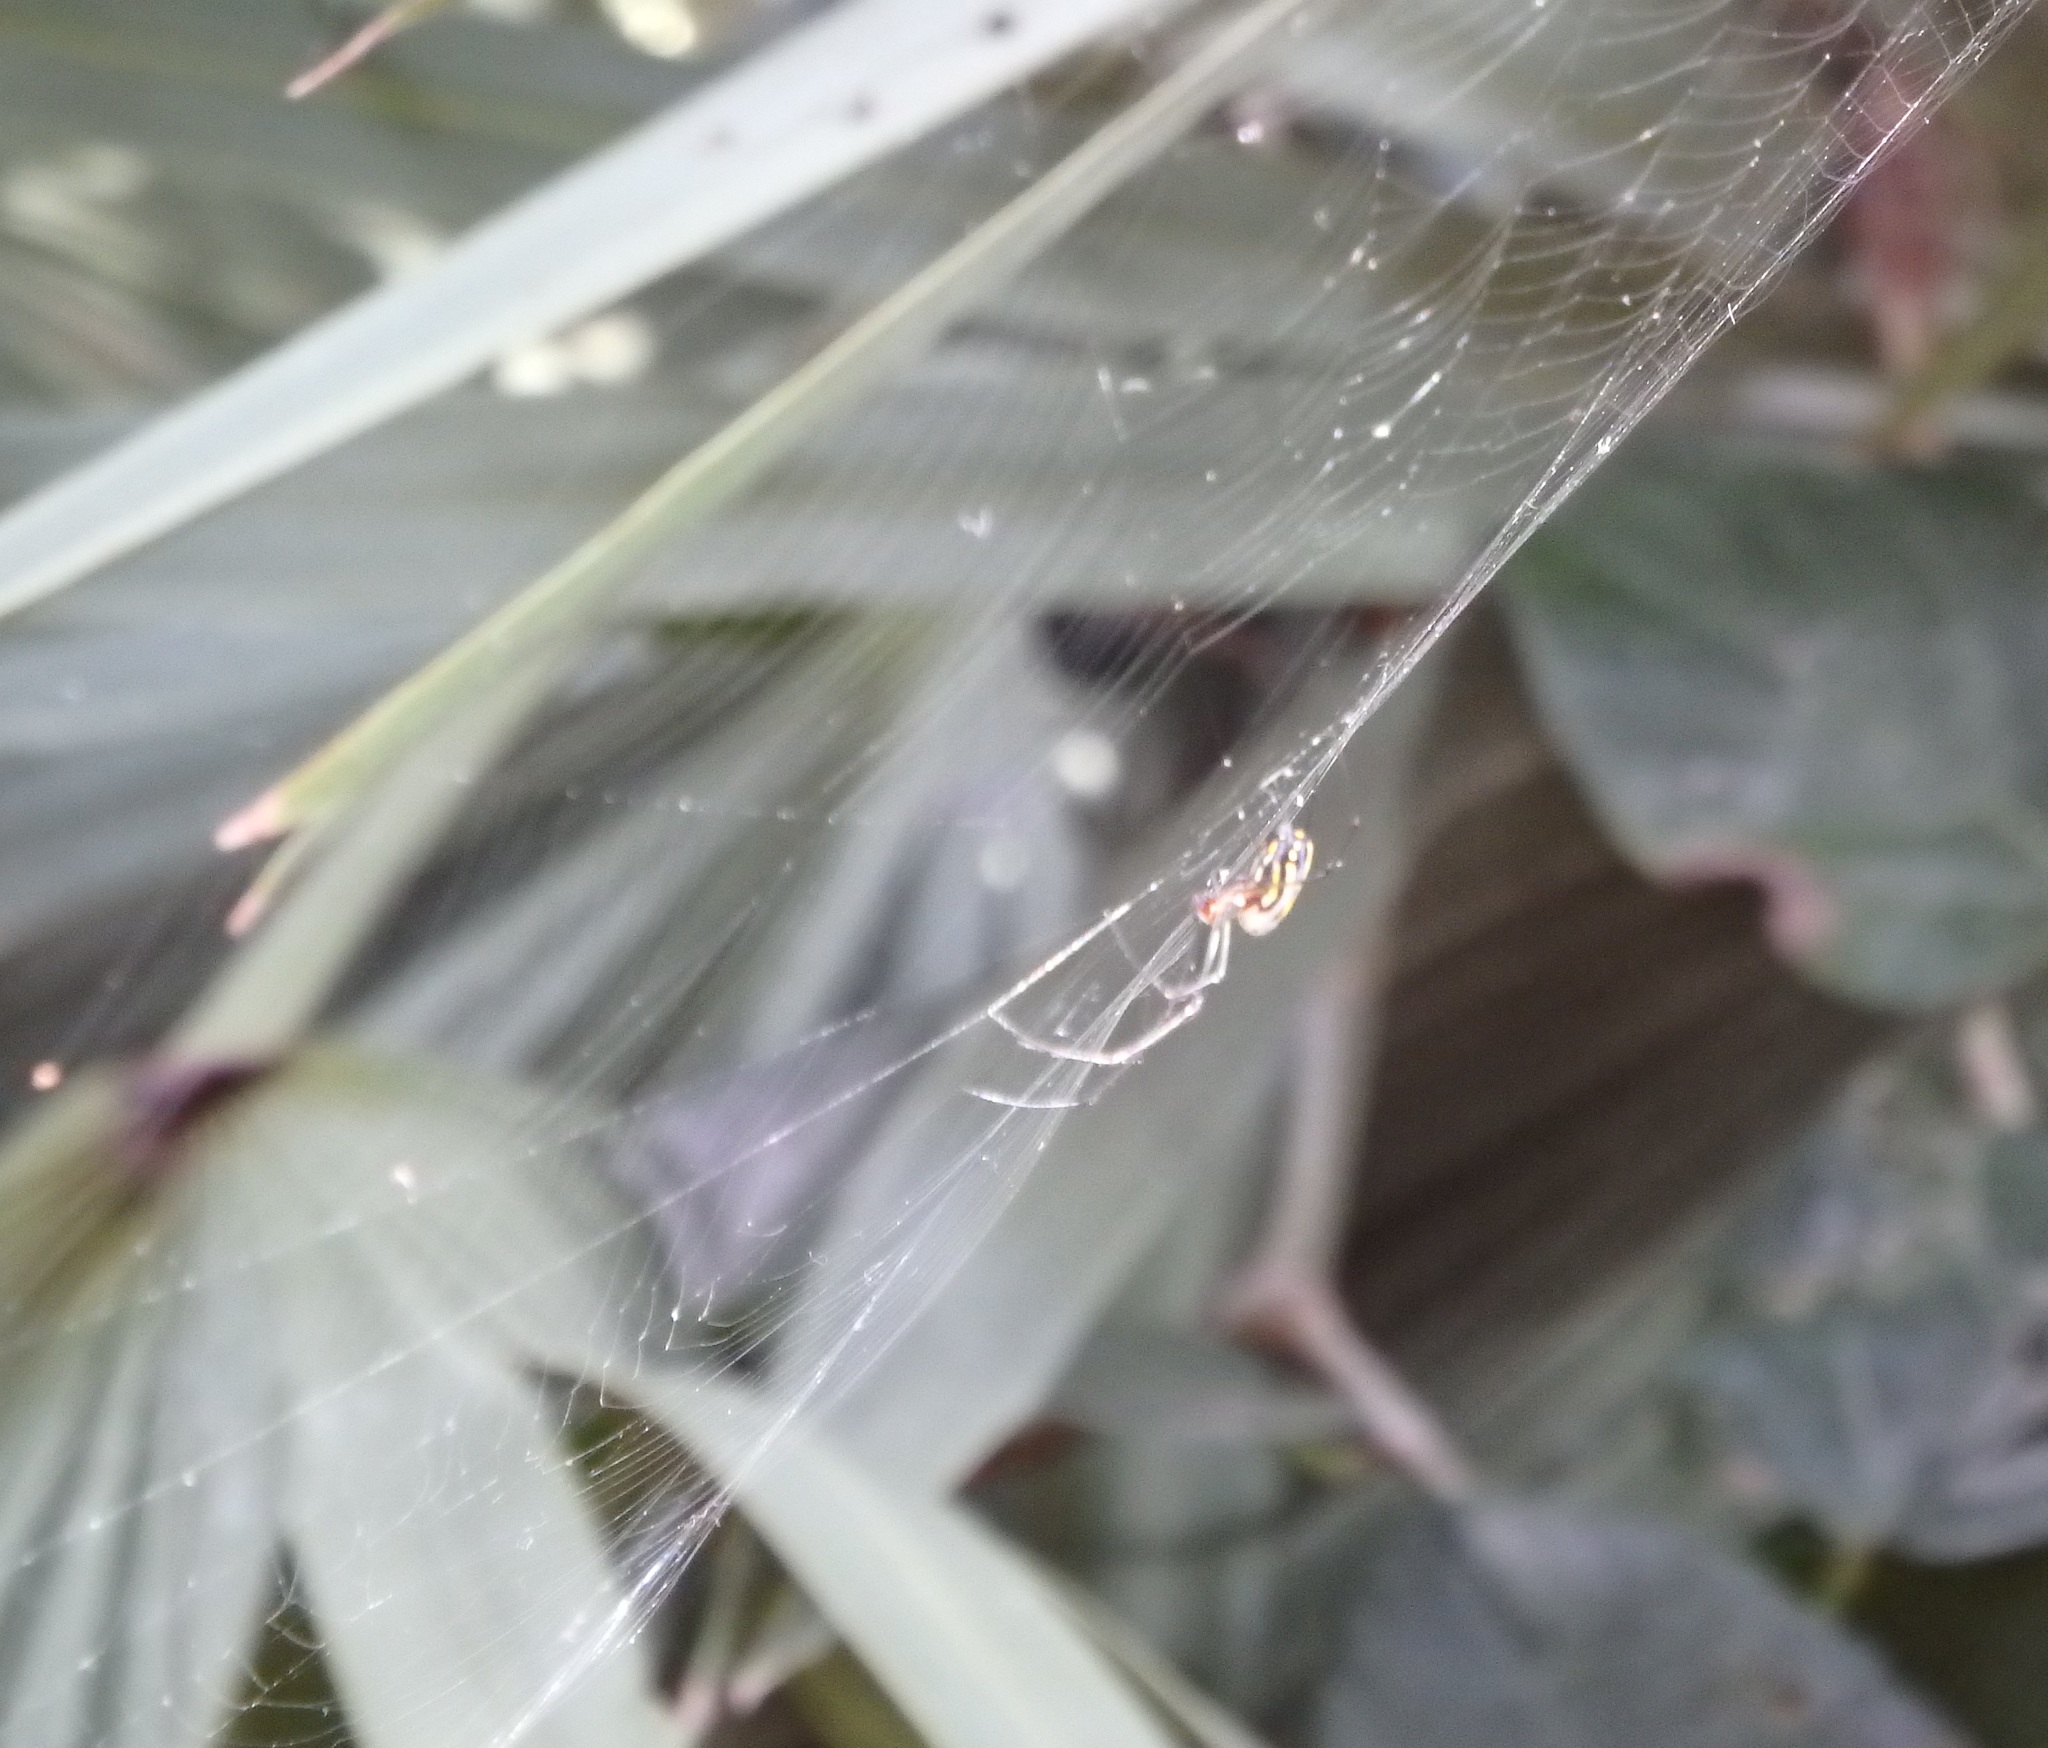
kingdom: Animalia
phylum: Arthropoda
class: Arachnida
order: Araneae
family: Tetragnathidae
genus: Leucauge
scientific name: Leucauge argyra
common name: Longjawed orb weavers
